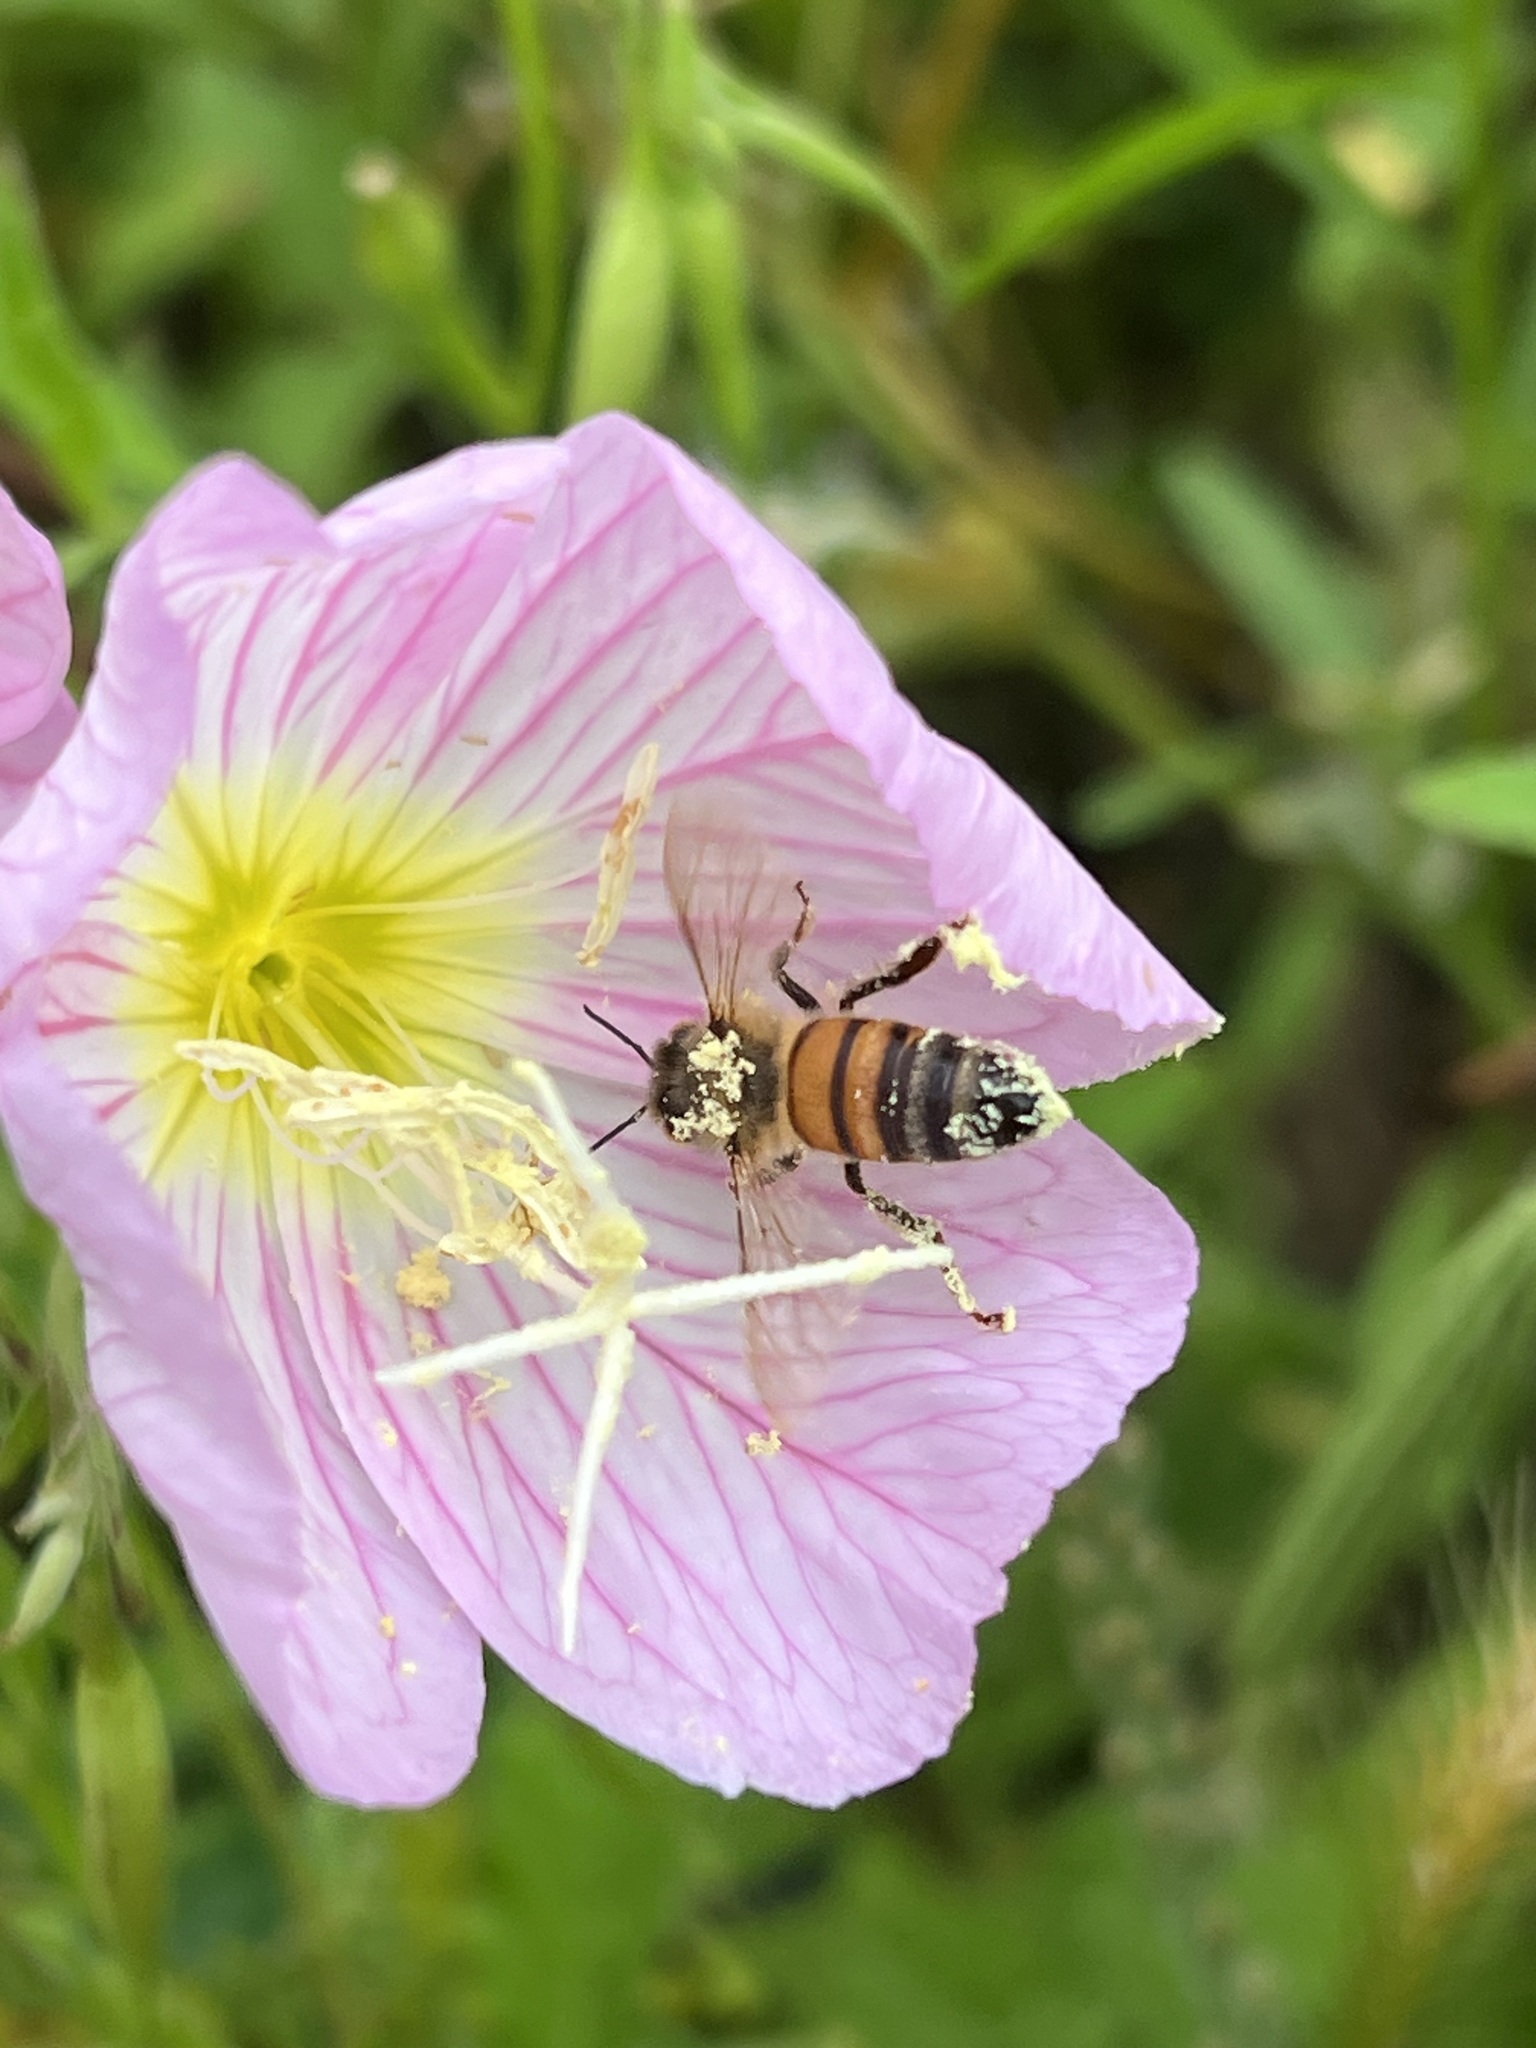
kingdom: Animalia
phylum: Arthropoda
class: Insecta
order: Hymenoptera
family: Apidae
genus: Apis
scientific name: Apis mellifera
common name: Honey bee
